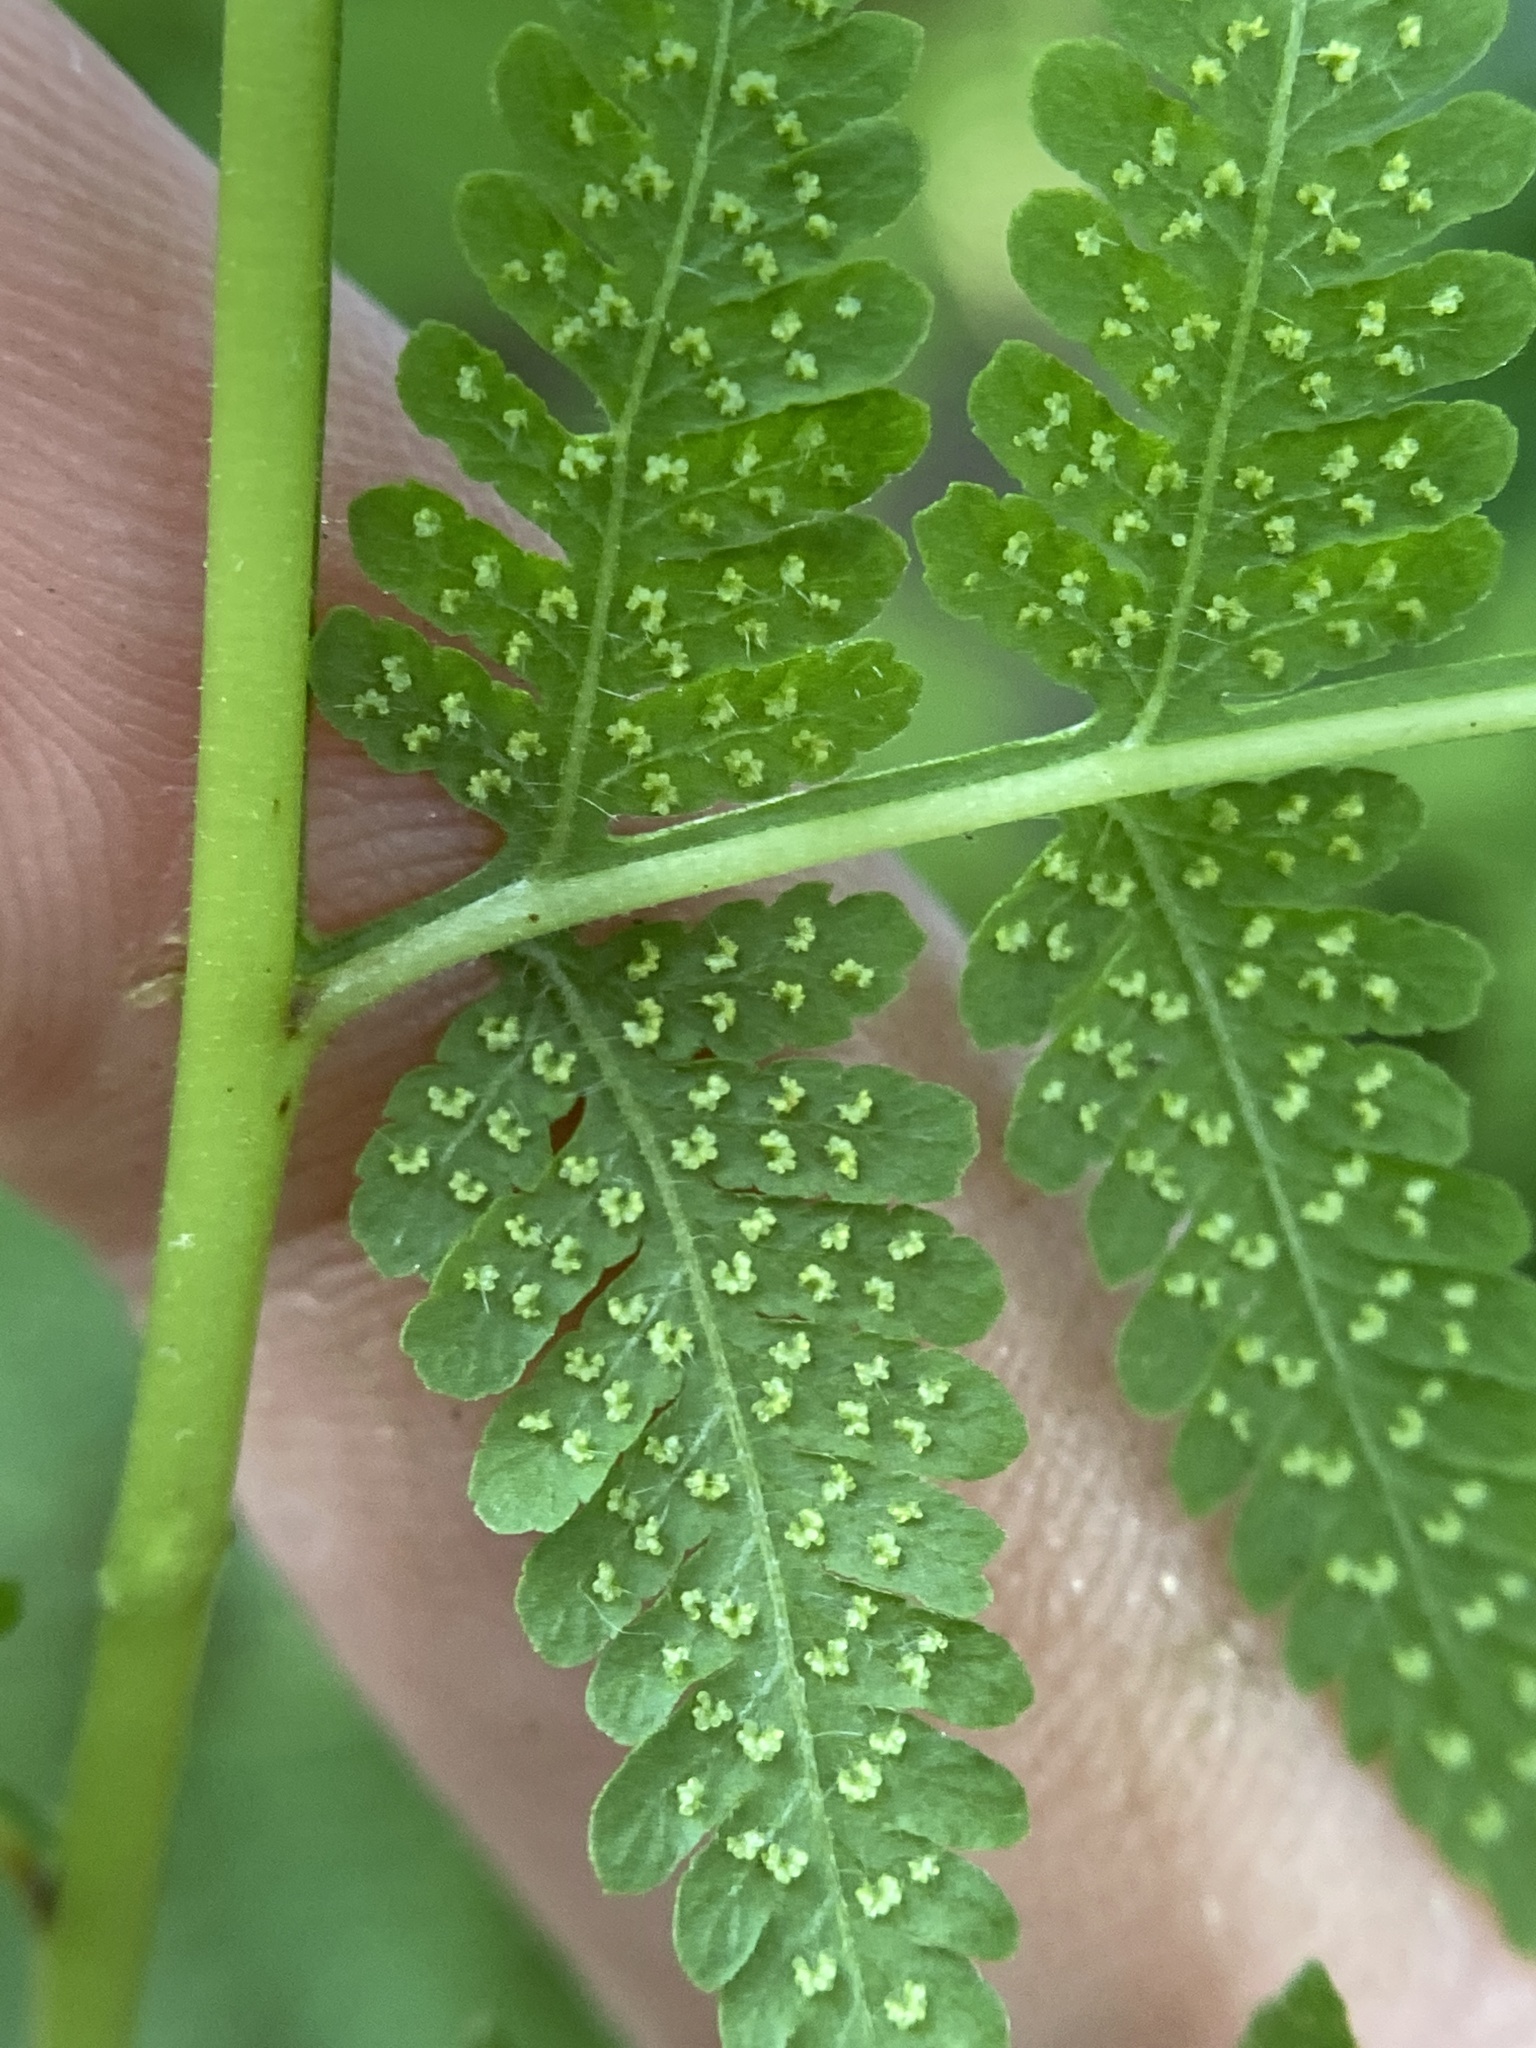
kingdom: Plantae
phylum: Tracheophyta
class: Polypodiopsida
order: Polypodiales
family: Thelypteridaceae
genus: Macrothelypteris
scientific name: Macrothelypteris torresiana
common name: Swordfern
